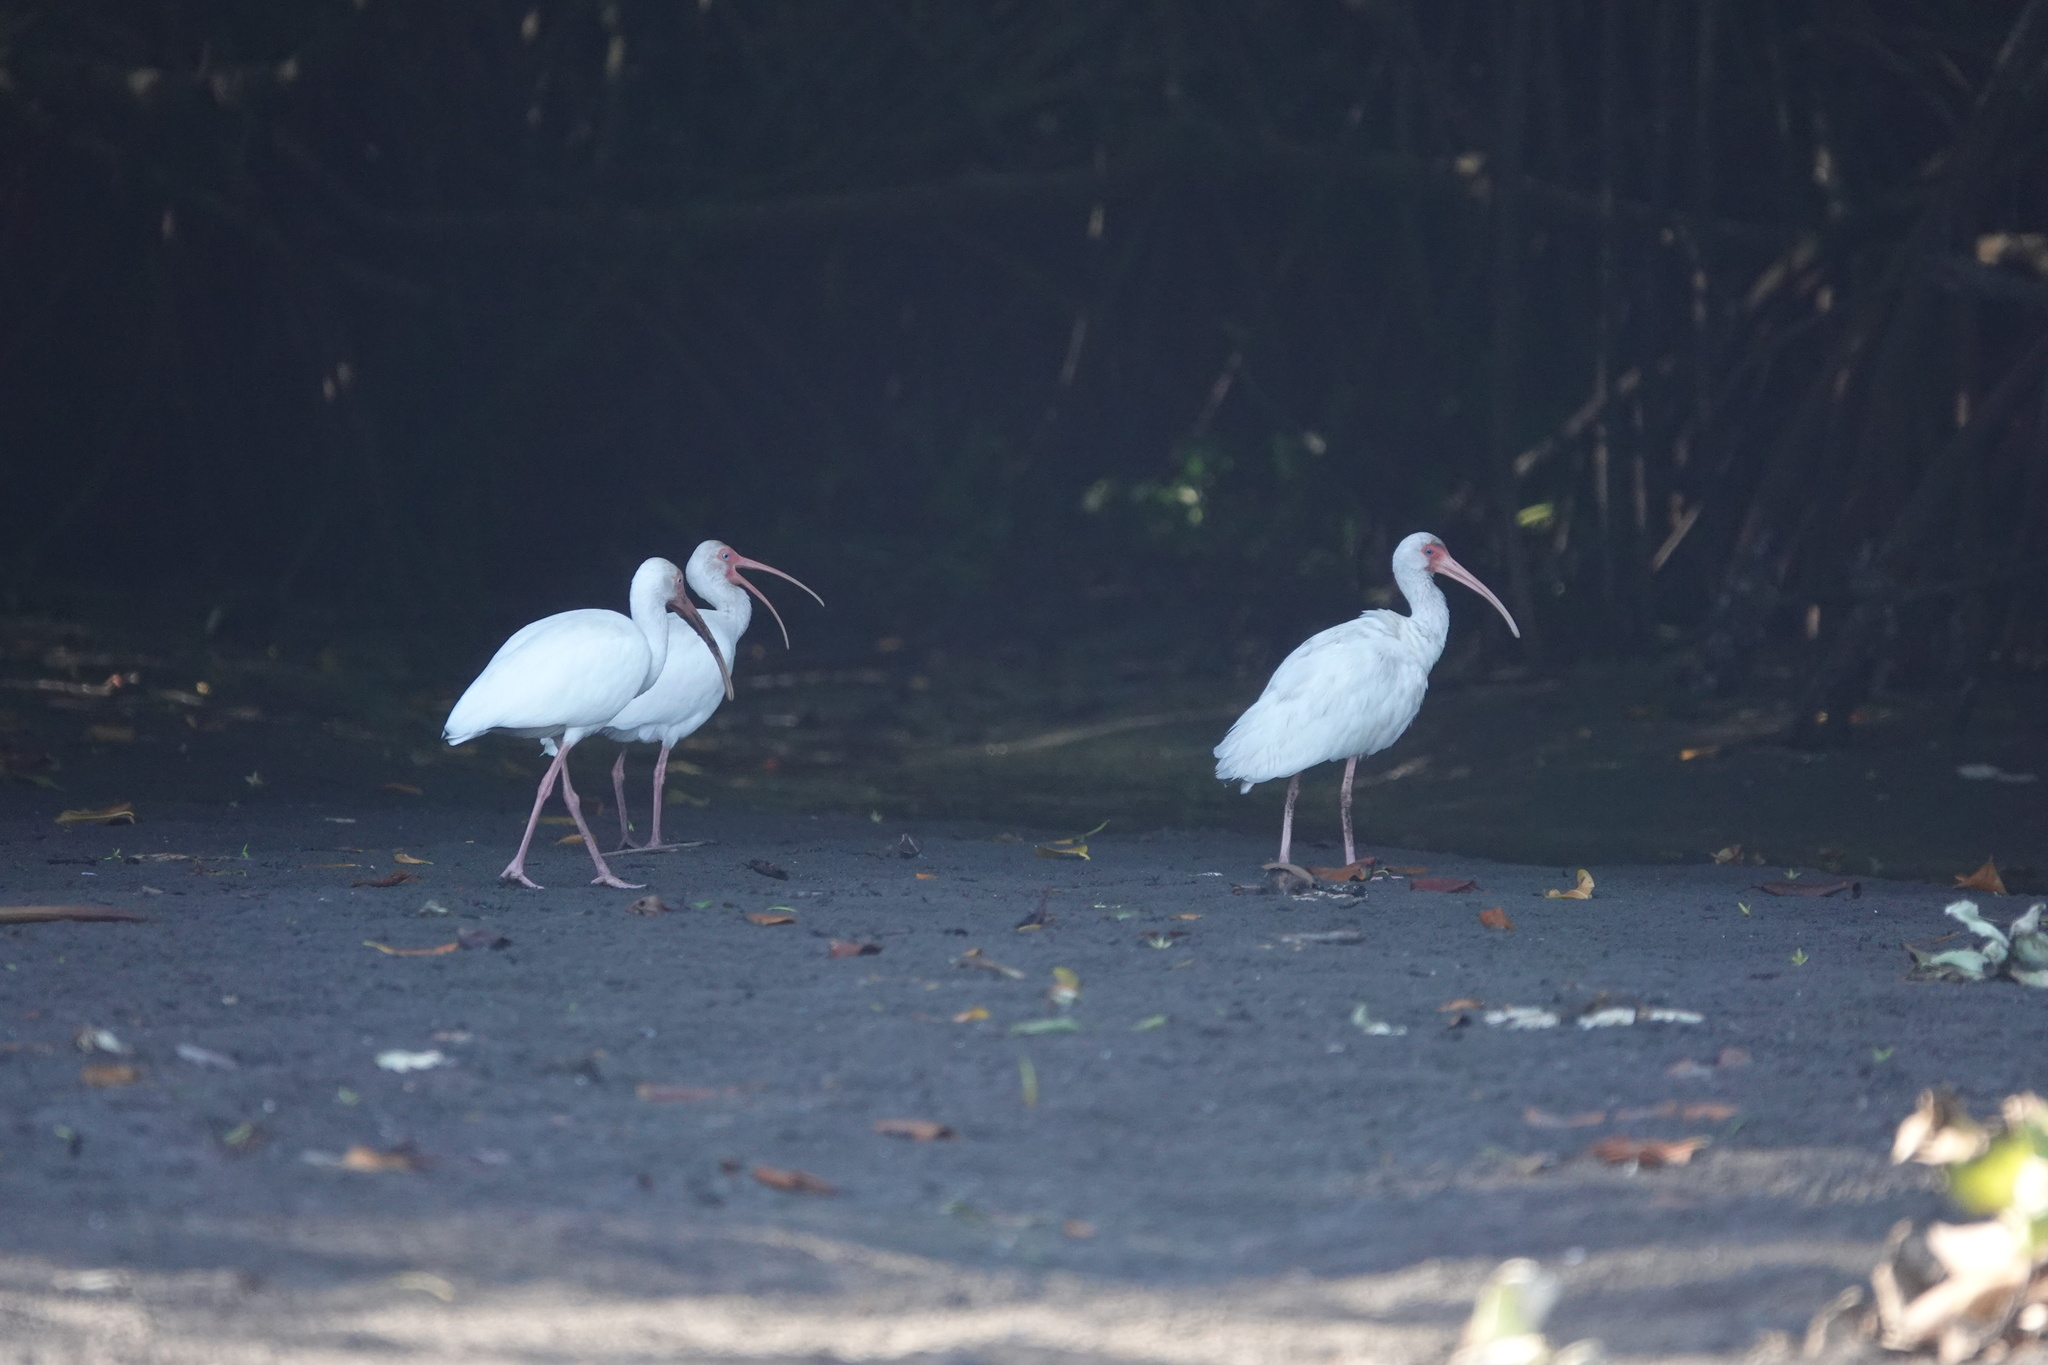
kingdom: Animalia
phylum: Chordata
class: Aves
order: Pelecaniformes
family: Threskiornithidae
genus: Eudocimus
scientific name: Eudocimus albus
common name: White ibis
